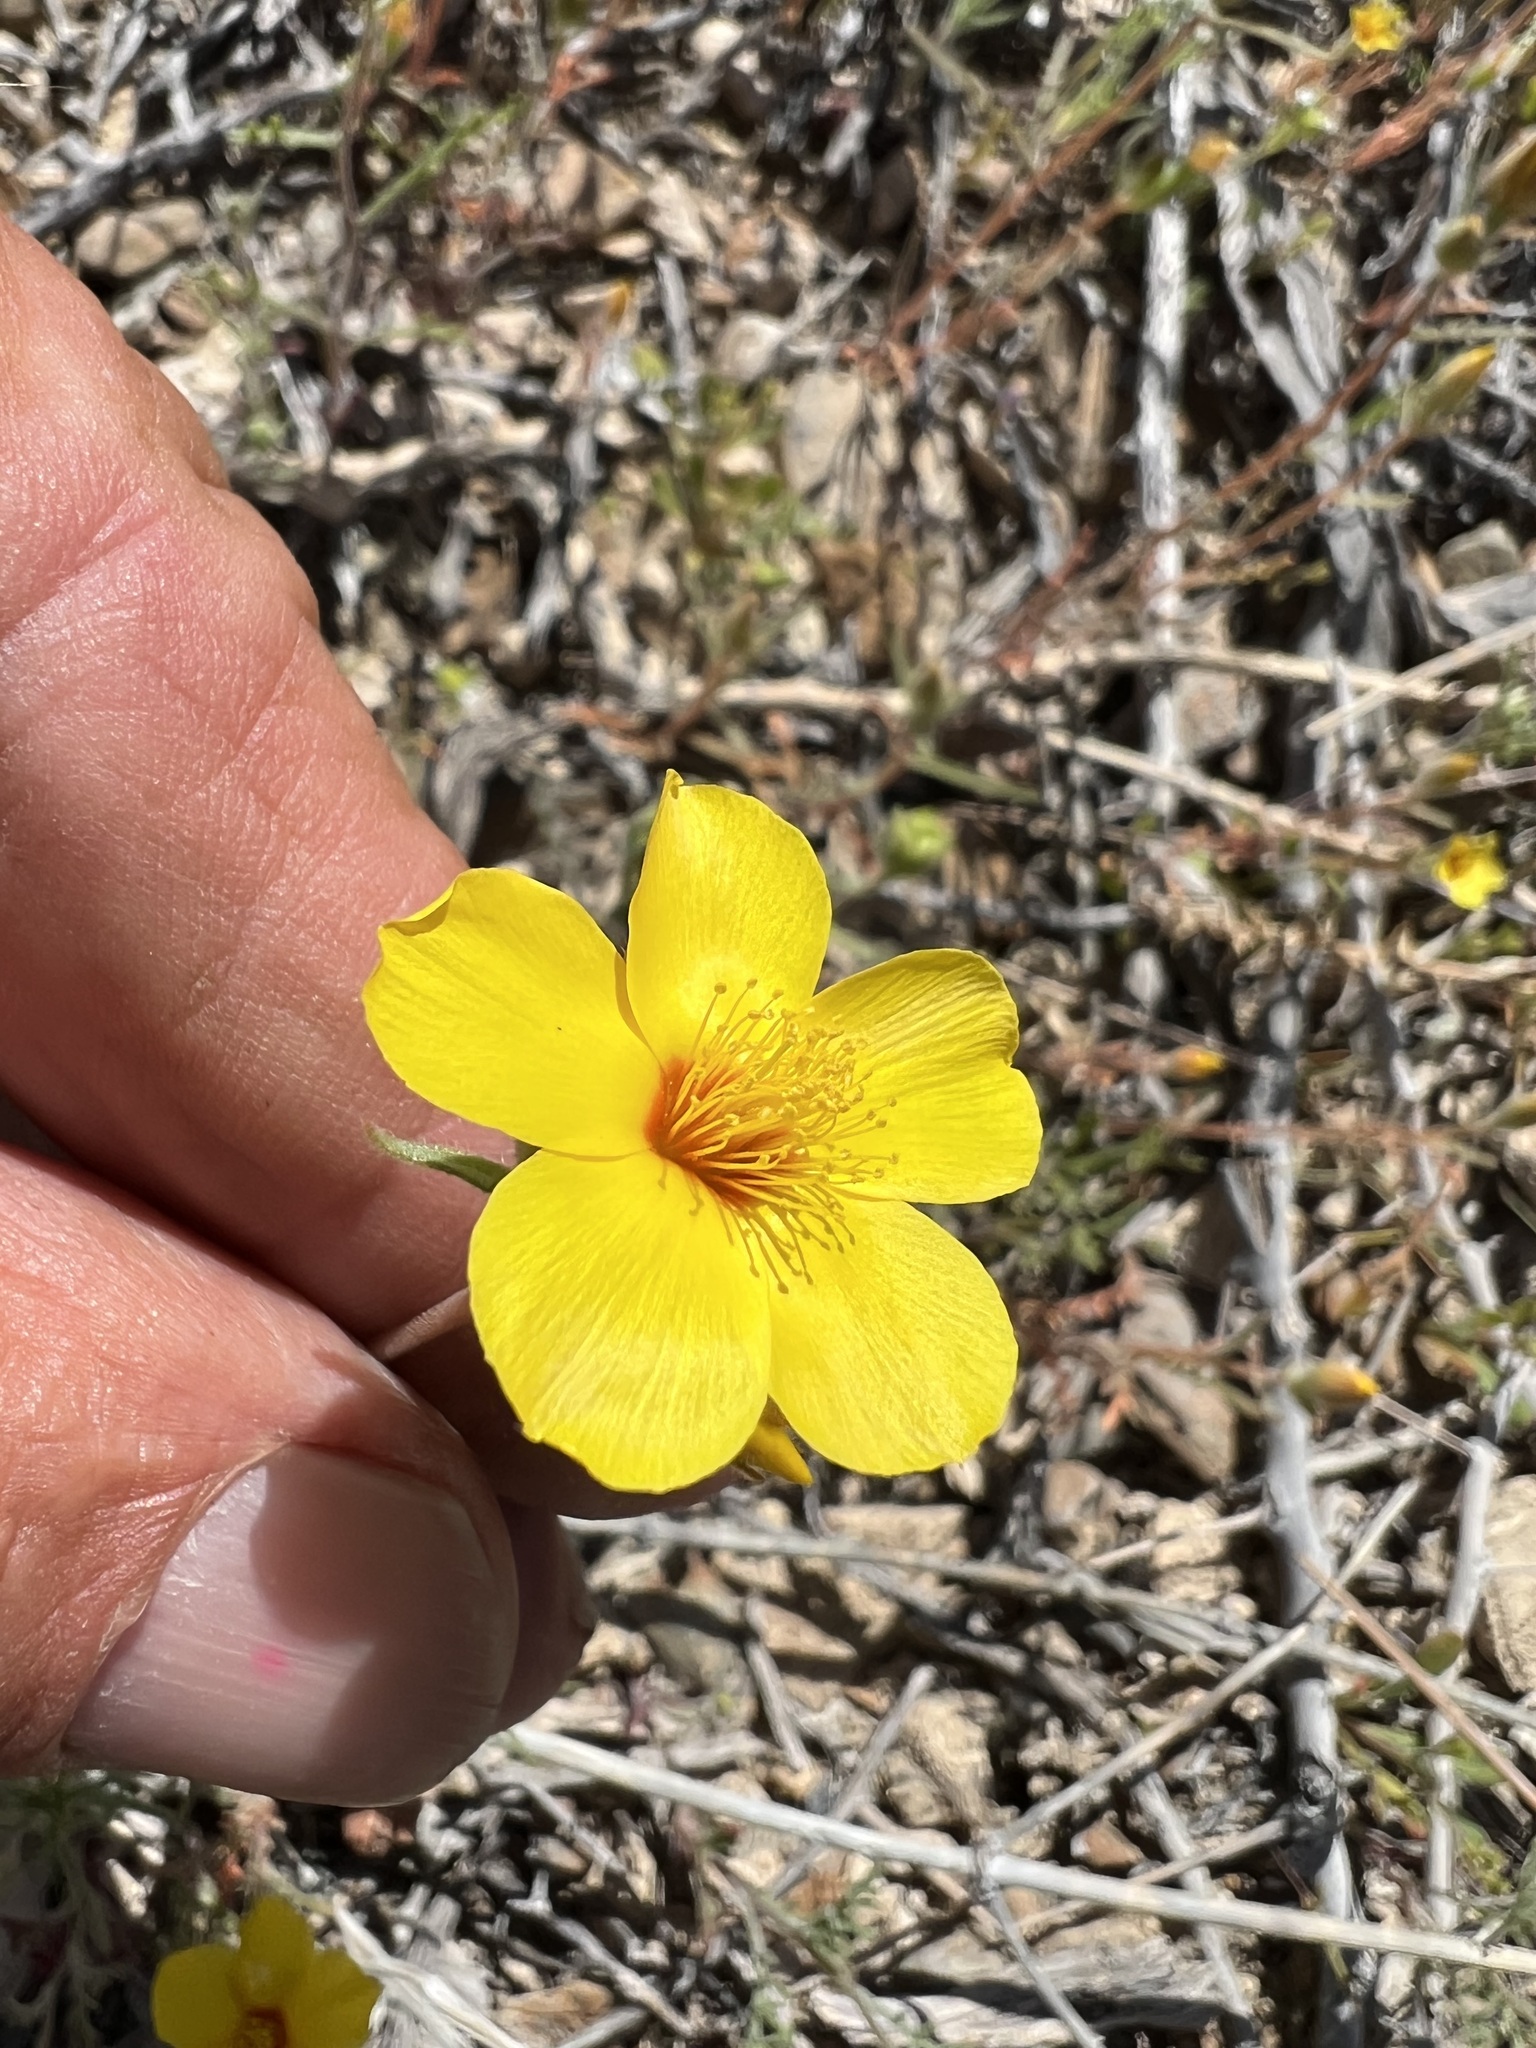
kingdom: Plantae
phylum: Tracheophyta
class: Magnoliopsida
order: Cornales
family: Loasaceae
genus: Mentzelia
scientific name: Mentzelia nitens
